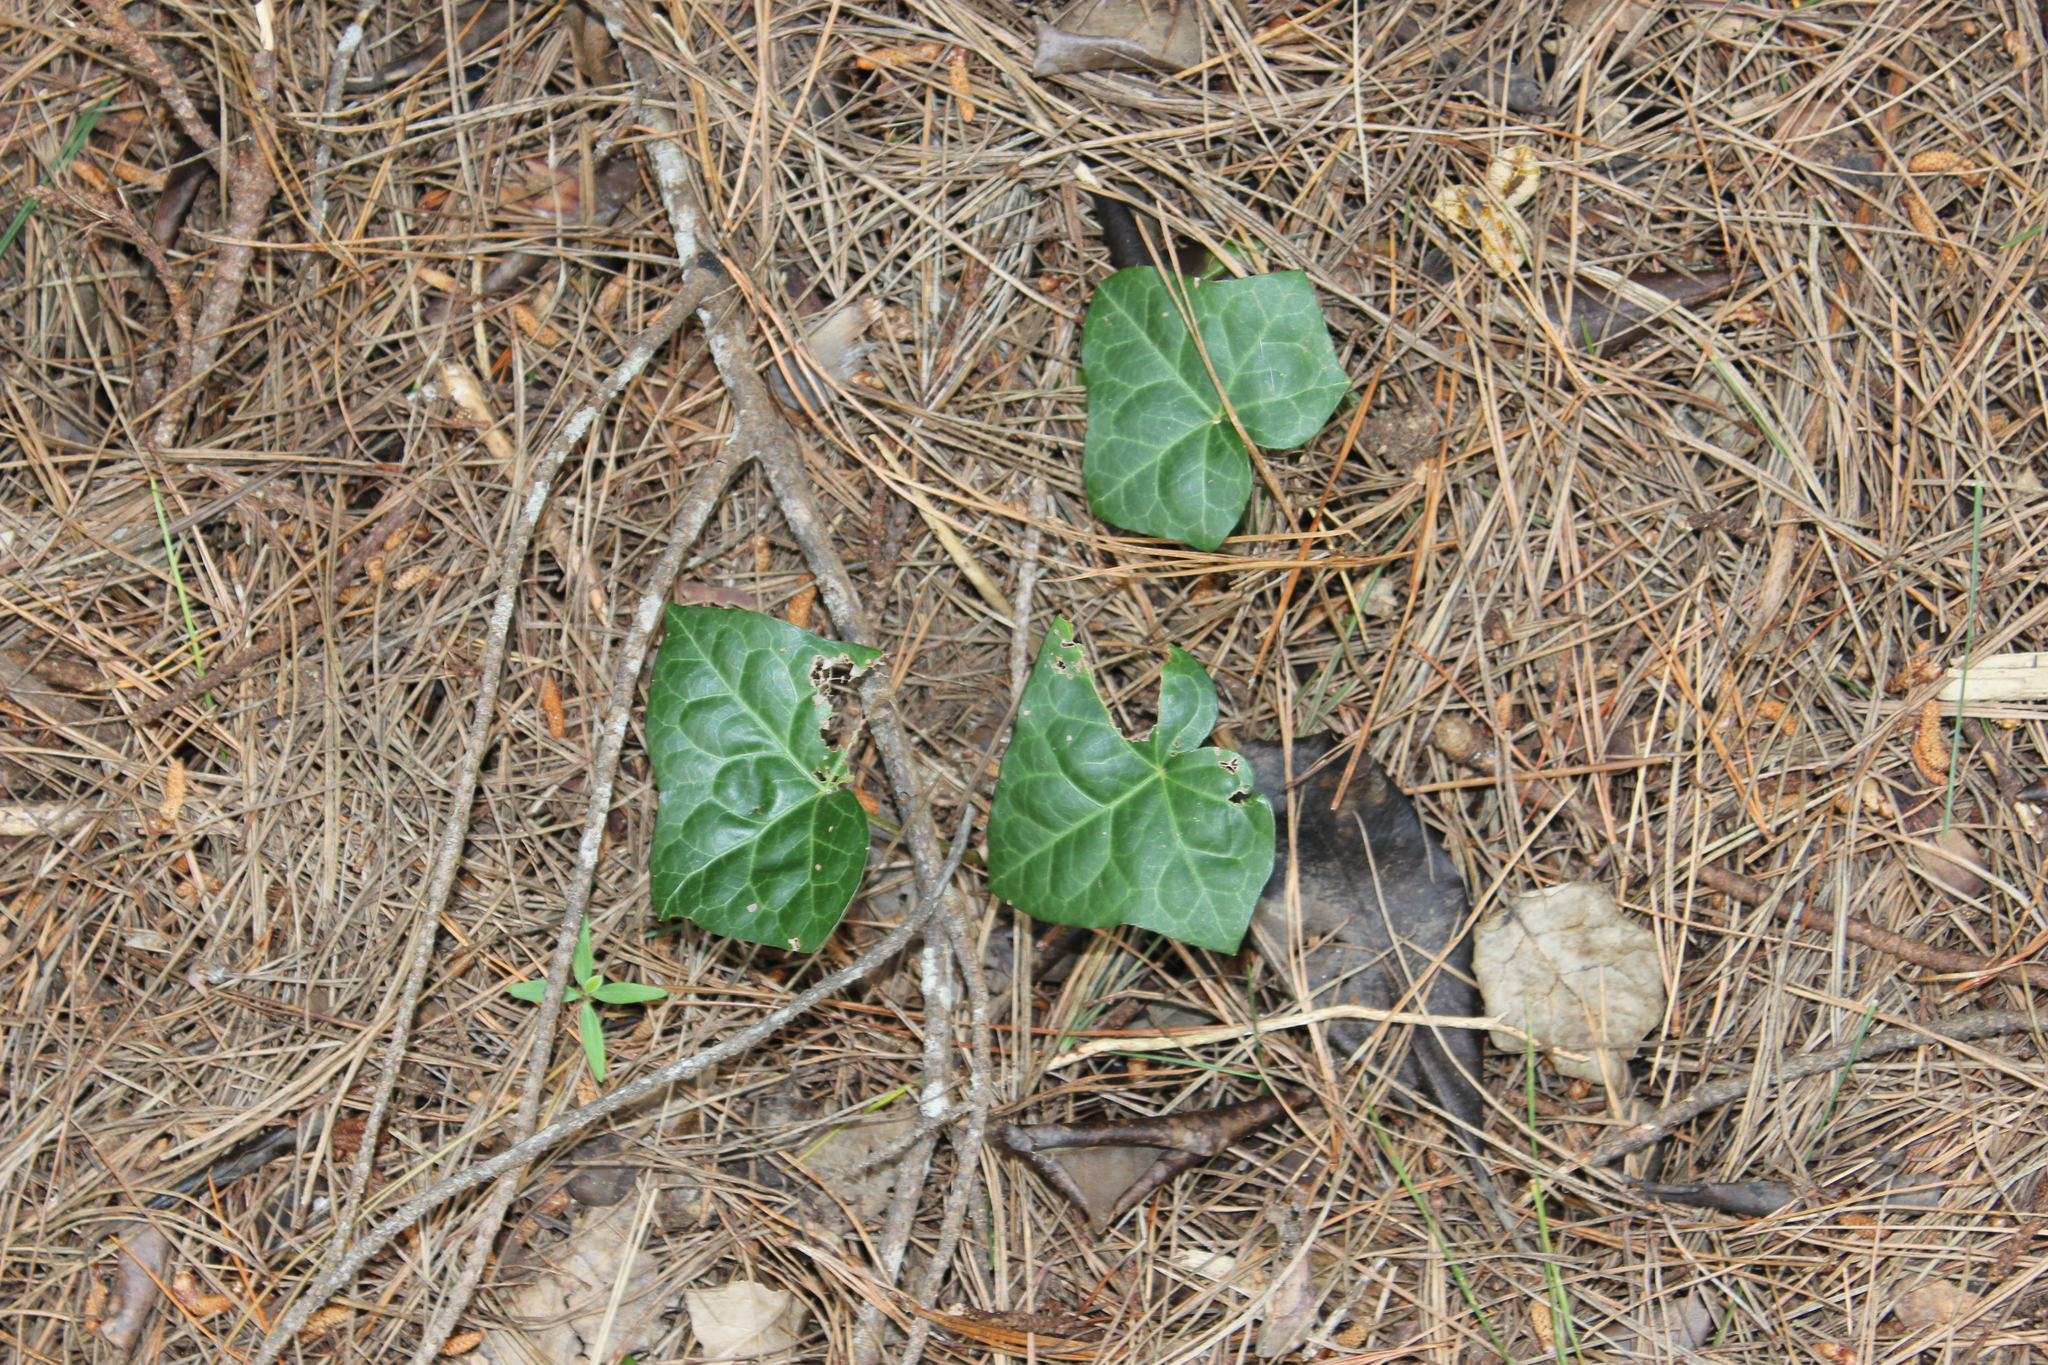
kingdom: Plantae
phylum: Tracheophyta
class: Magnoliopsida
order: Apiales
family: Araliaceae
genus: Hedera
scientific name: Hedera helix
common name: Ivy
